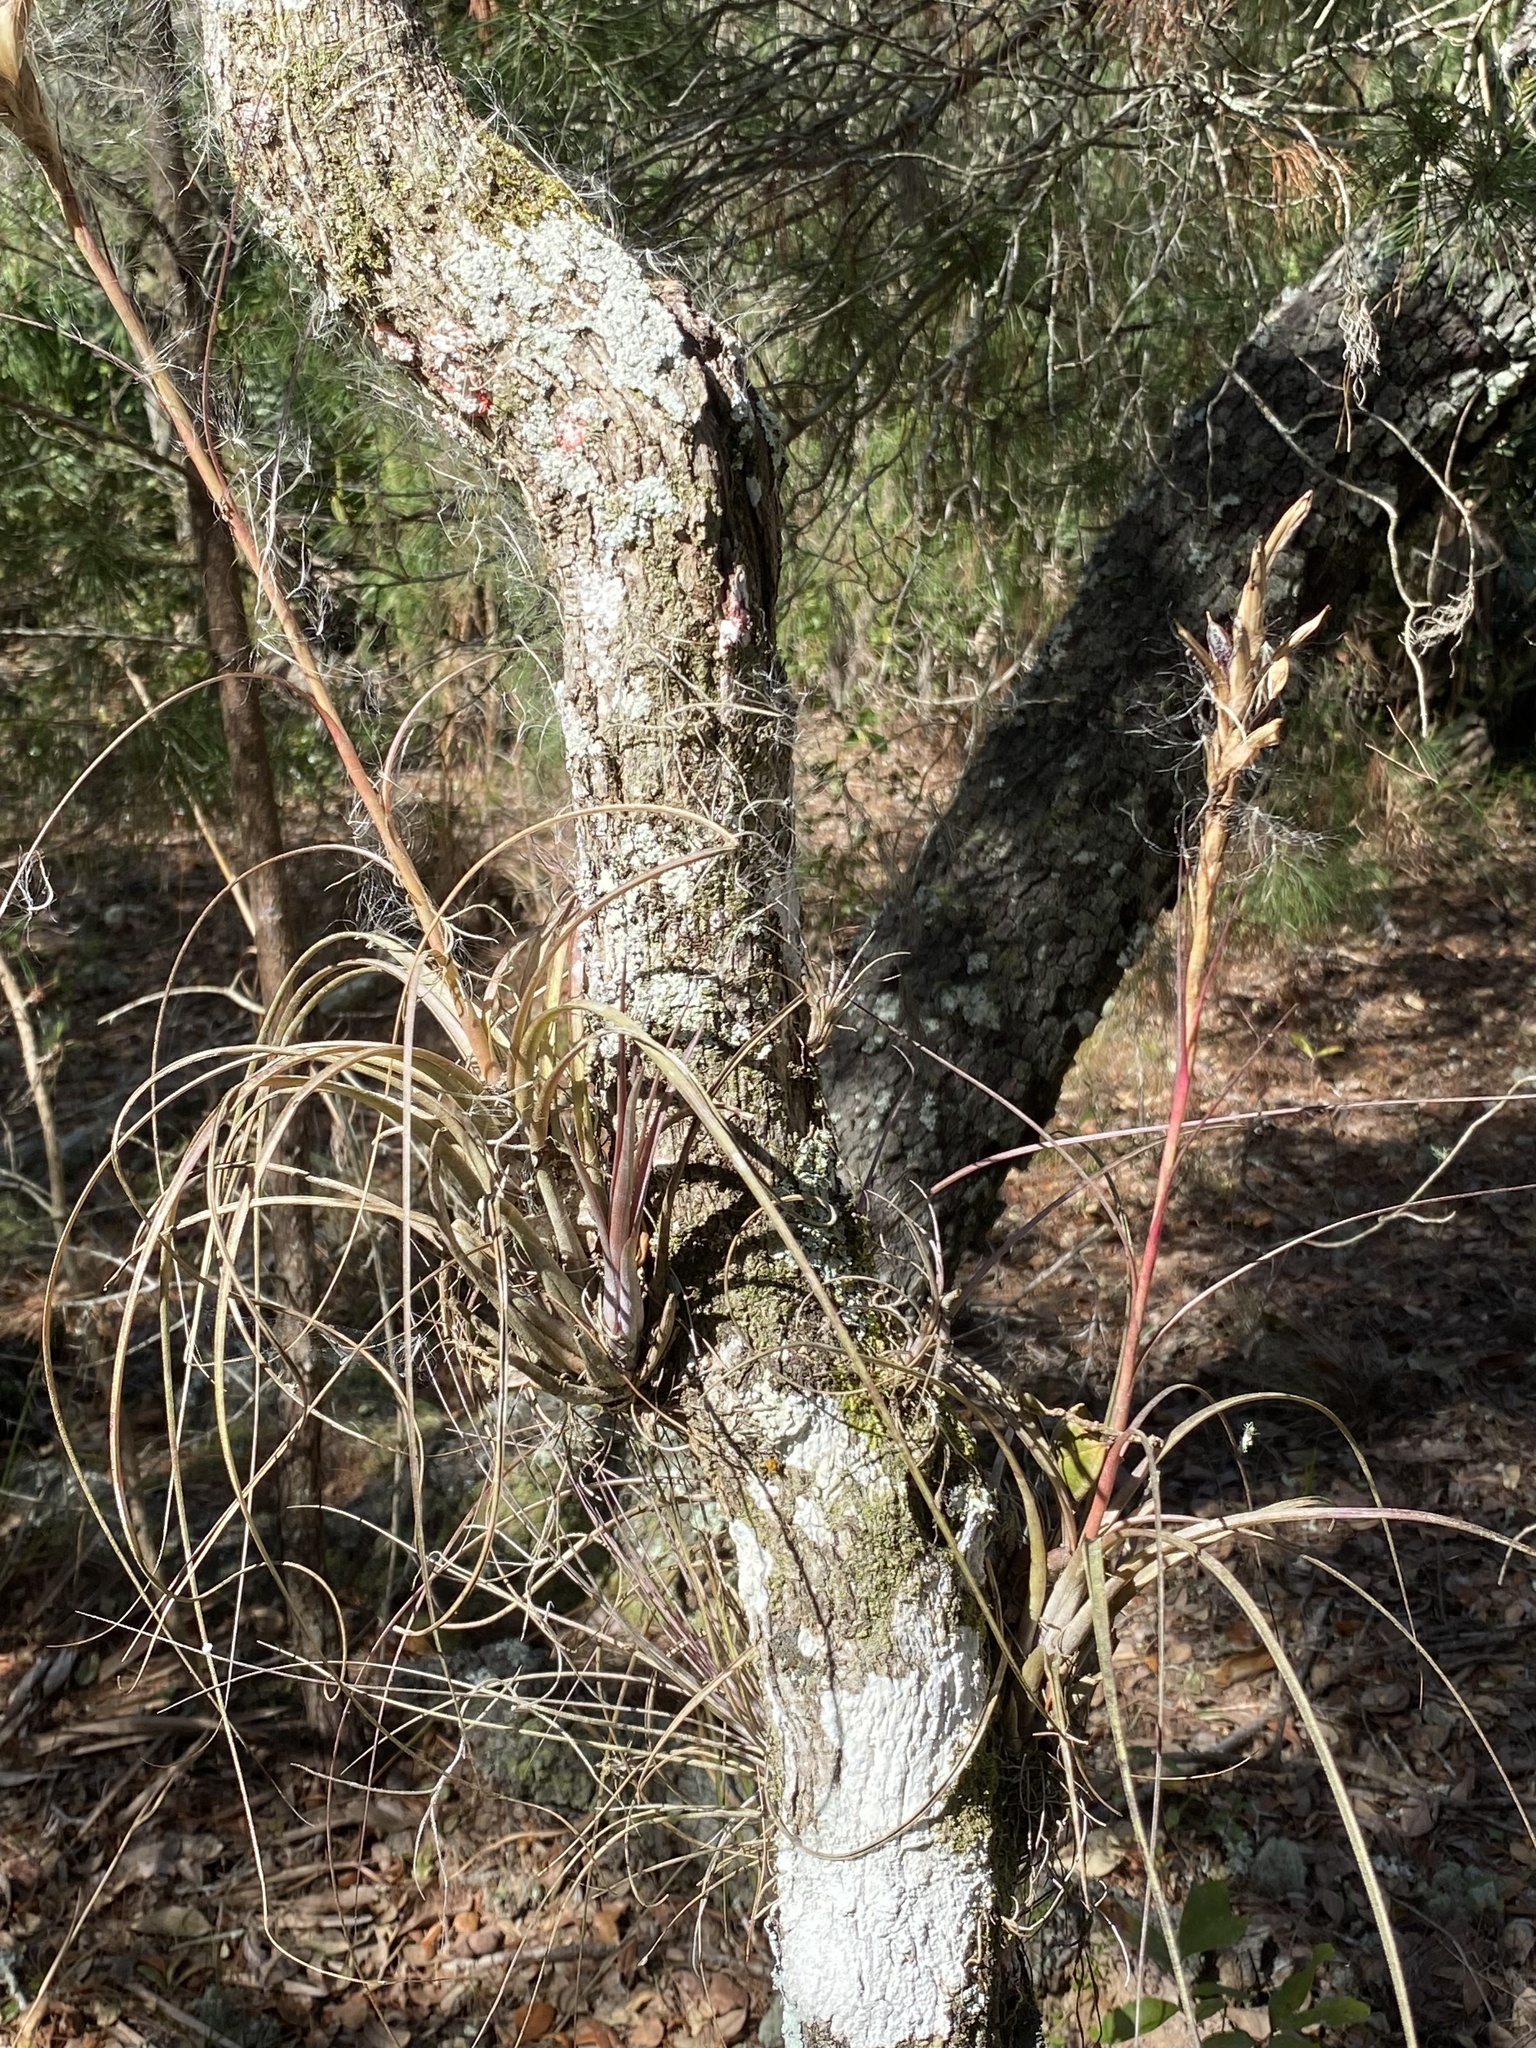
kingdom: Plantae
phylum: Tracheophyta
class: Liliopsida
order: Poales
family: Bromeliaceae
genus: Tillandsia
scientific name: Tillandsia simulata
